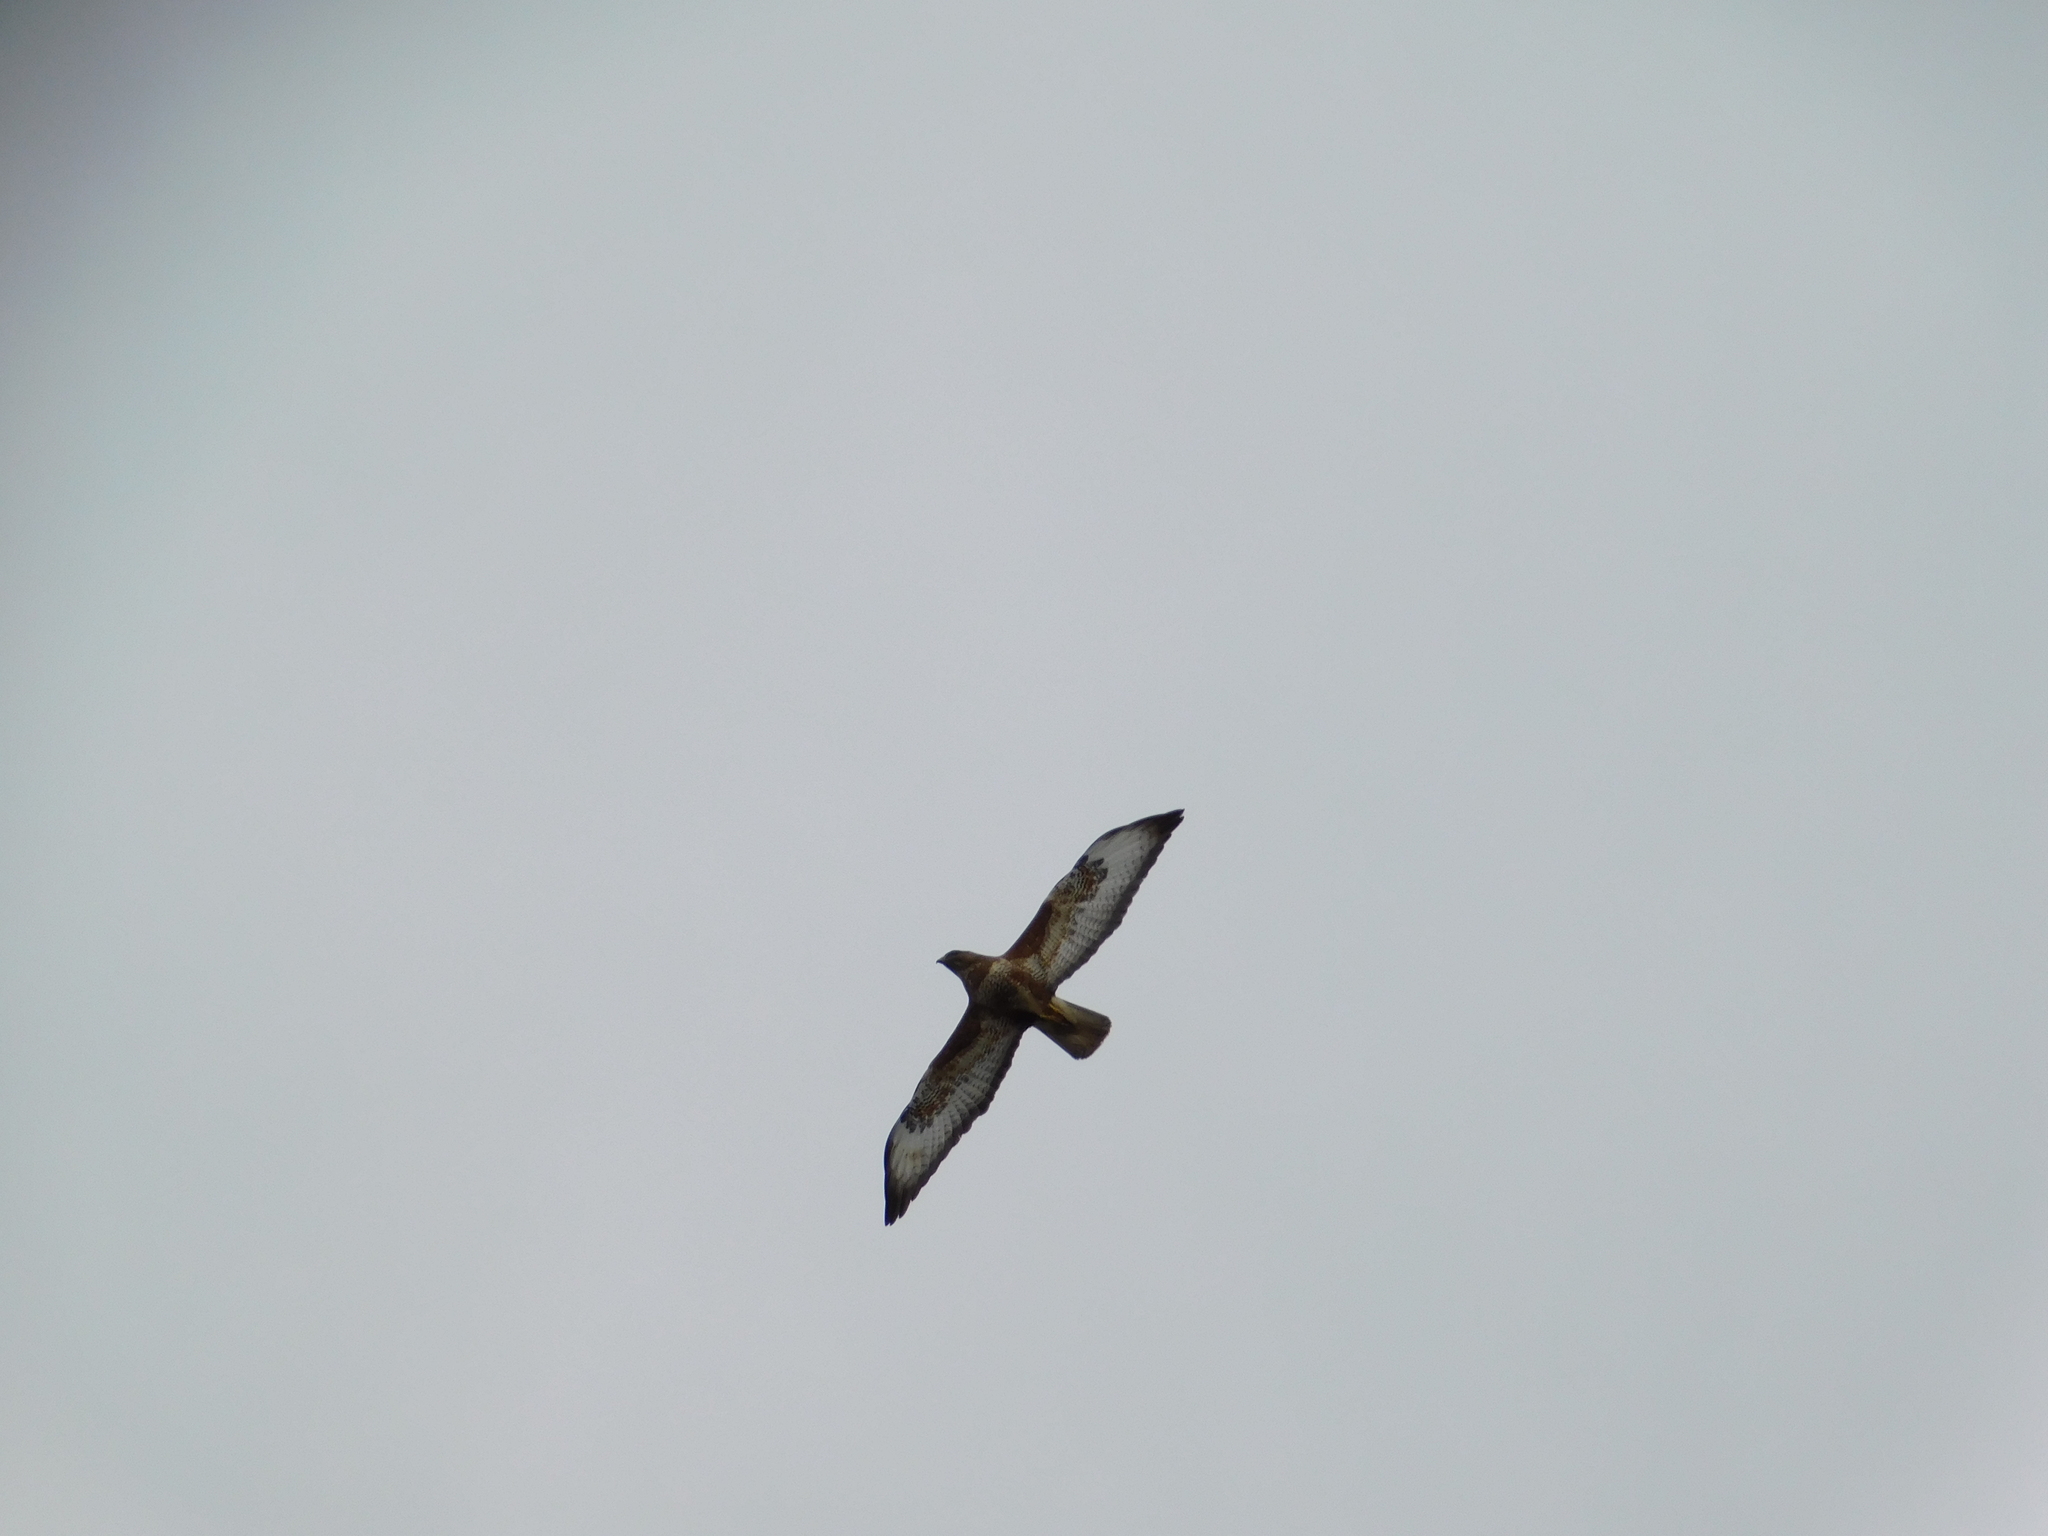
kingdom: Animalia
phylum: Chordata
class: Aves
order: Accipitriformes
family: Accipitridae
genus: Buteo
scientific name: Buteo buteo
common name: Common buzzard
